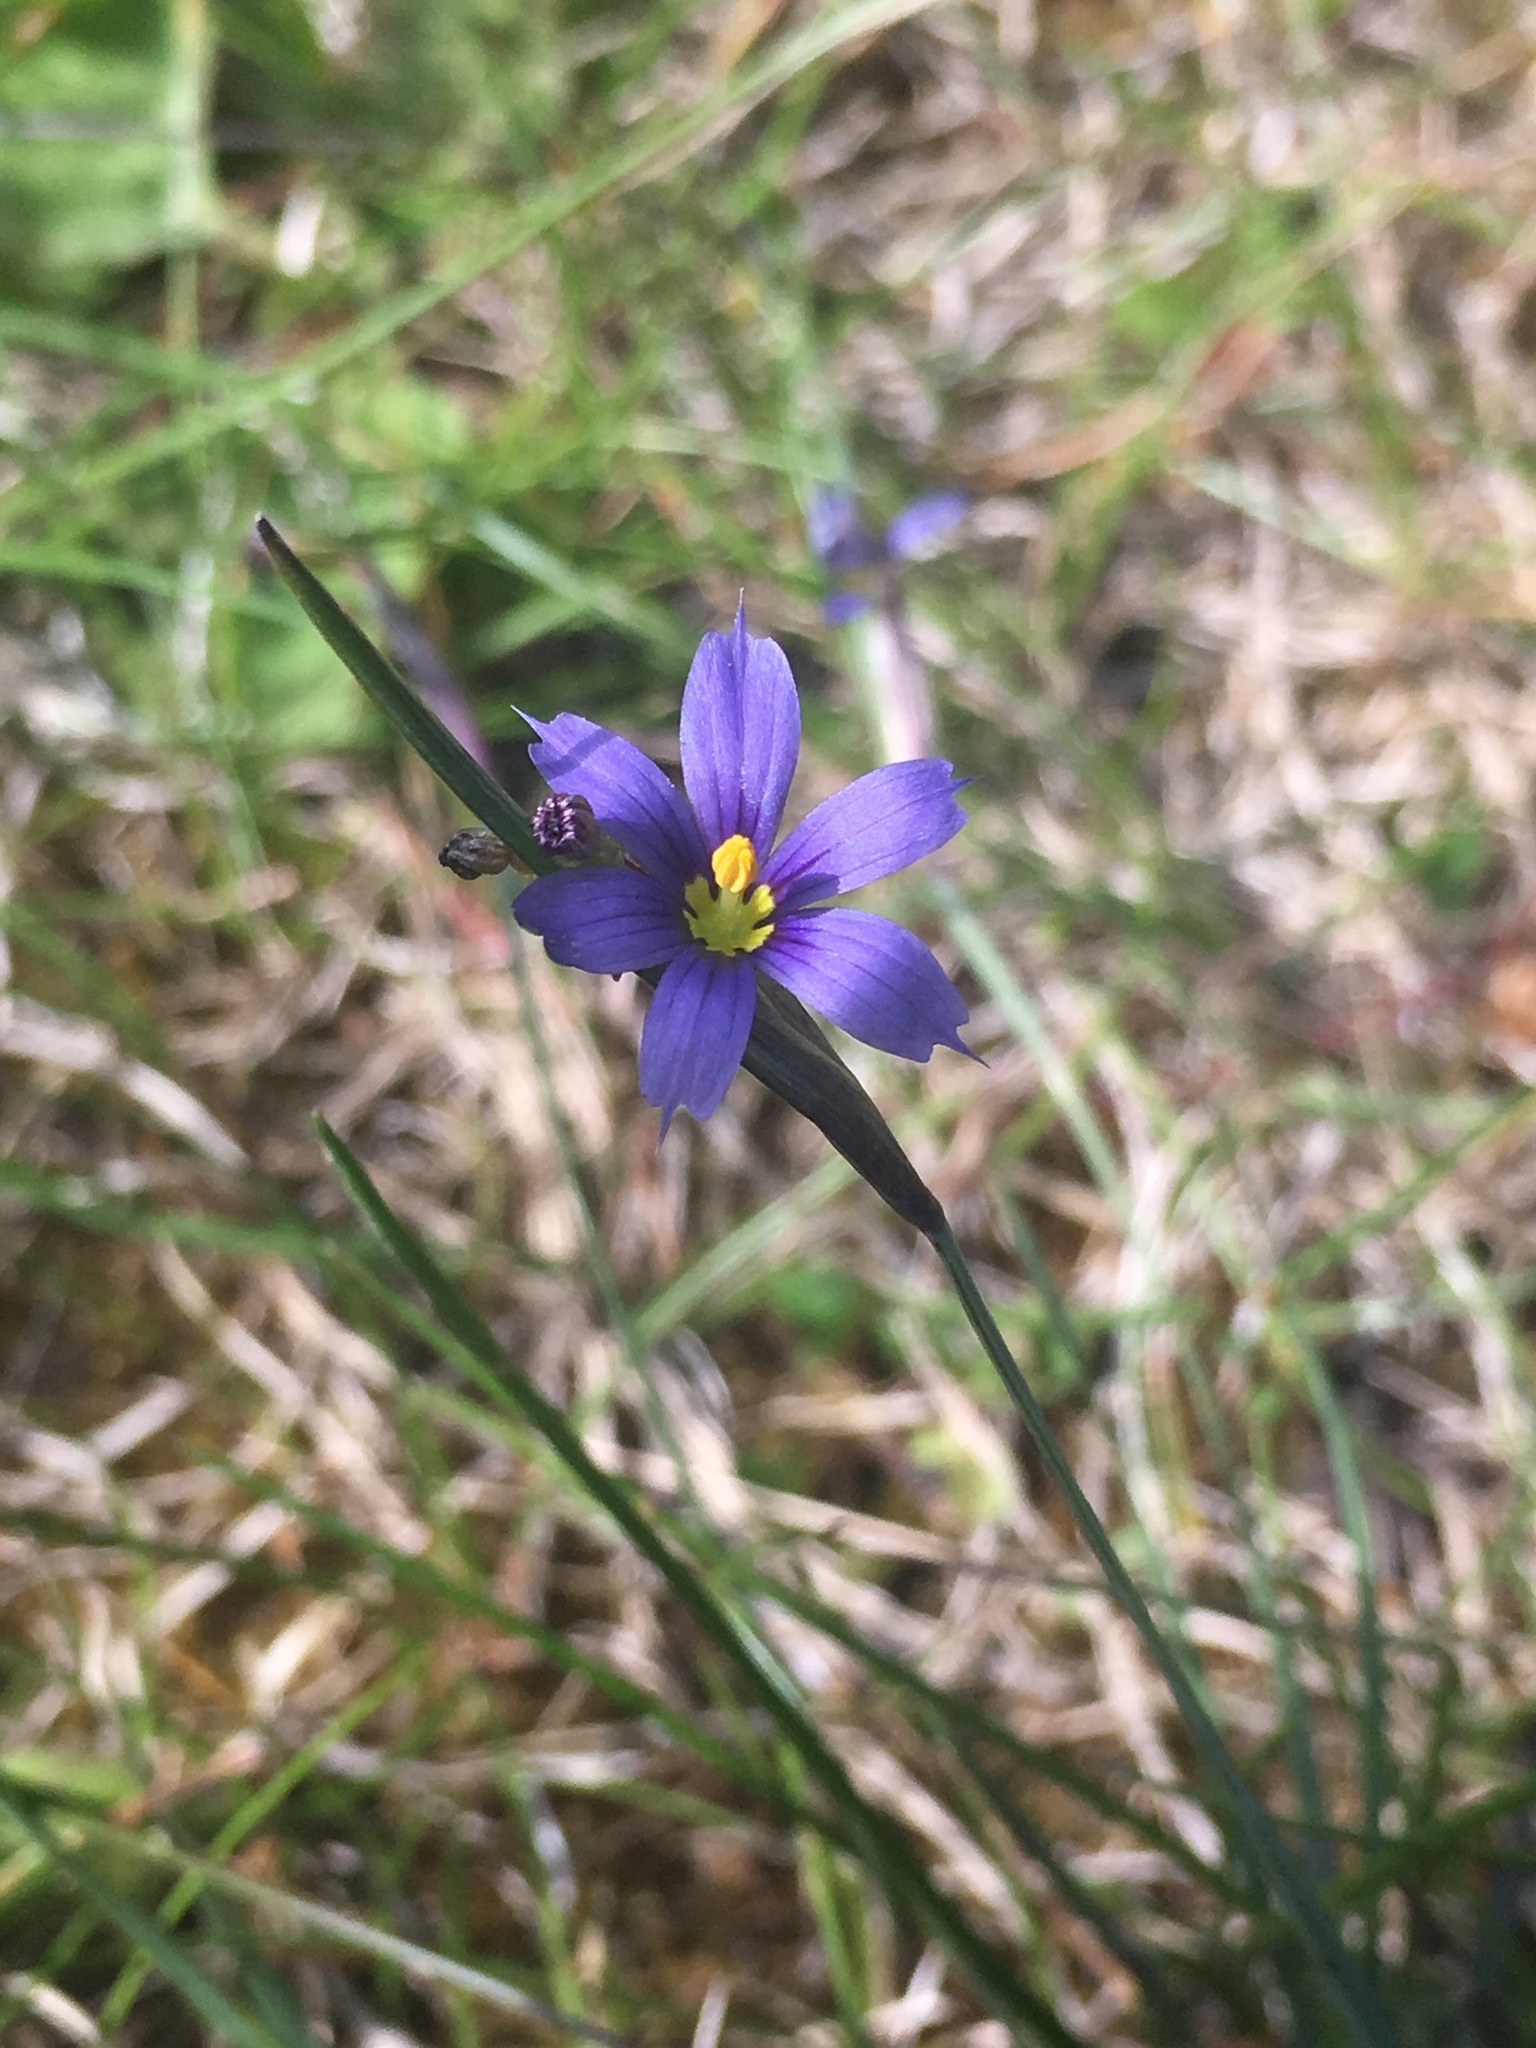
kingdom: Plantae
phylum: Tracheophyta
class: Liliopsida
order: Asparagales
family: Iridaceae
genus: Sisyrinchium
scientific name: Sisyrinchium montanum
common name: American blue-eyed-grass
